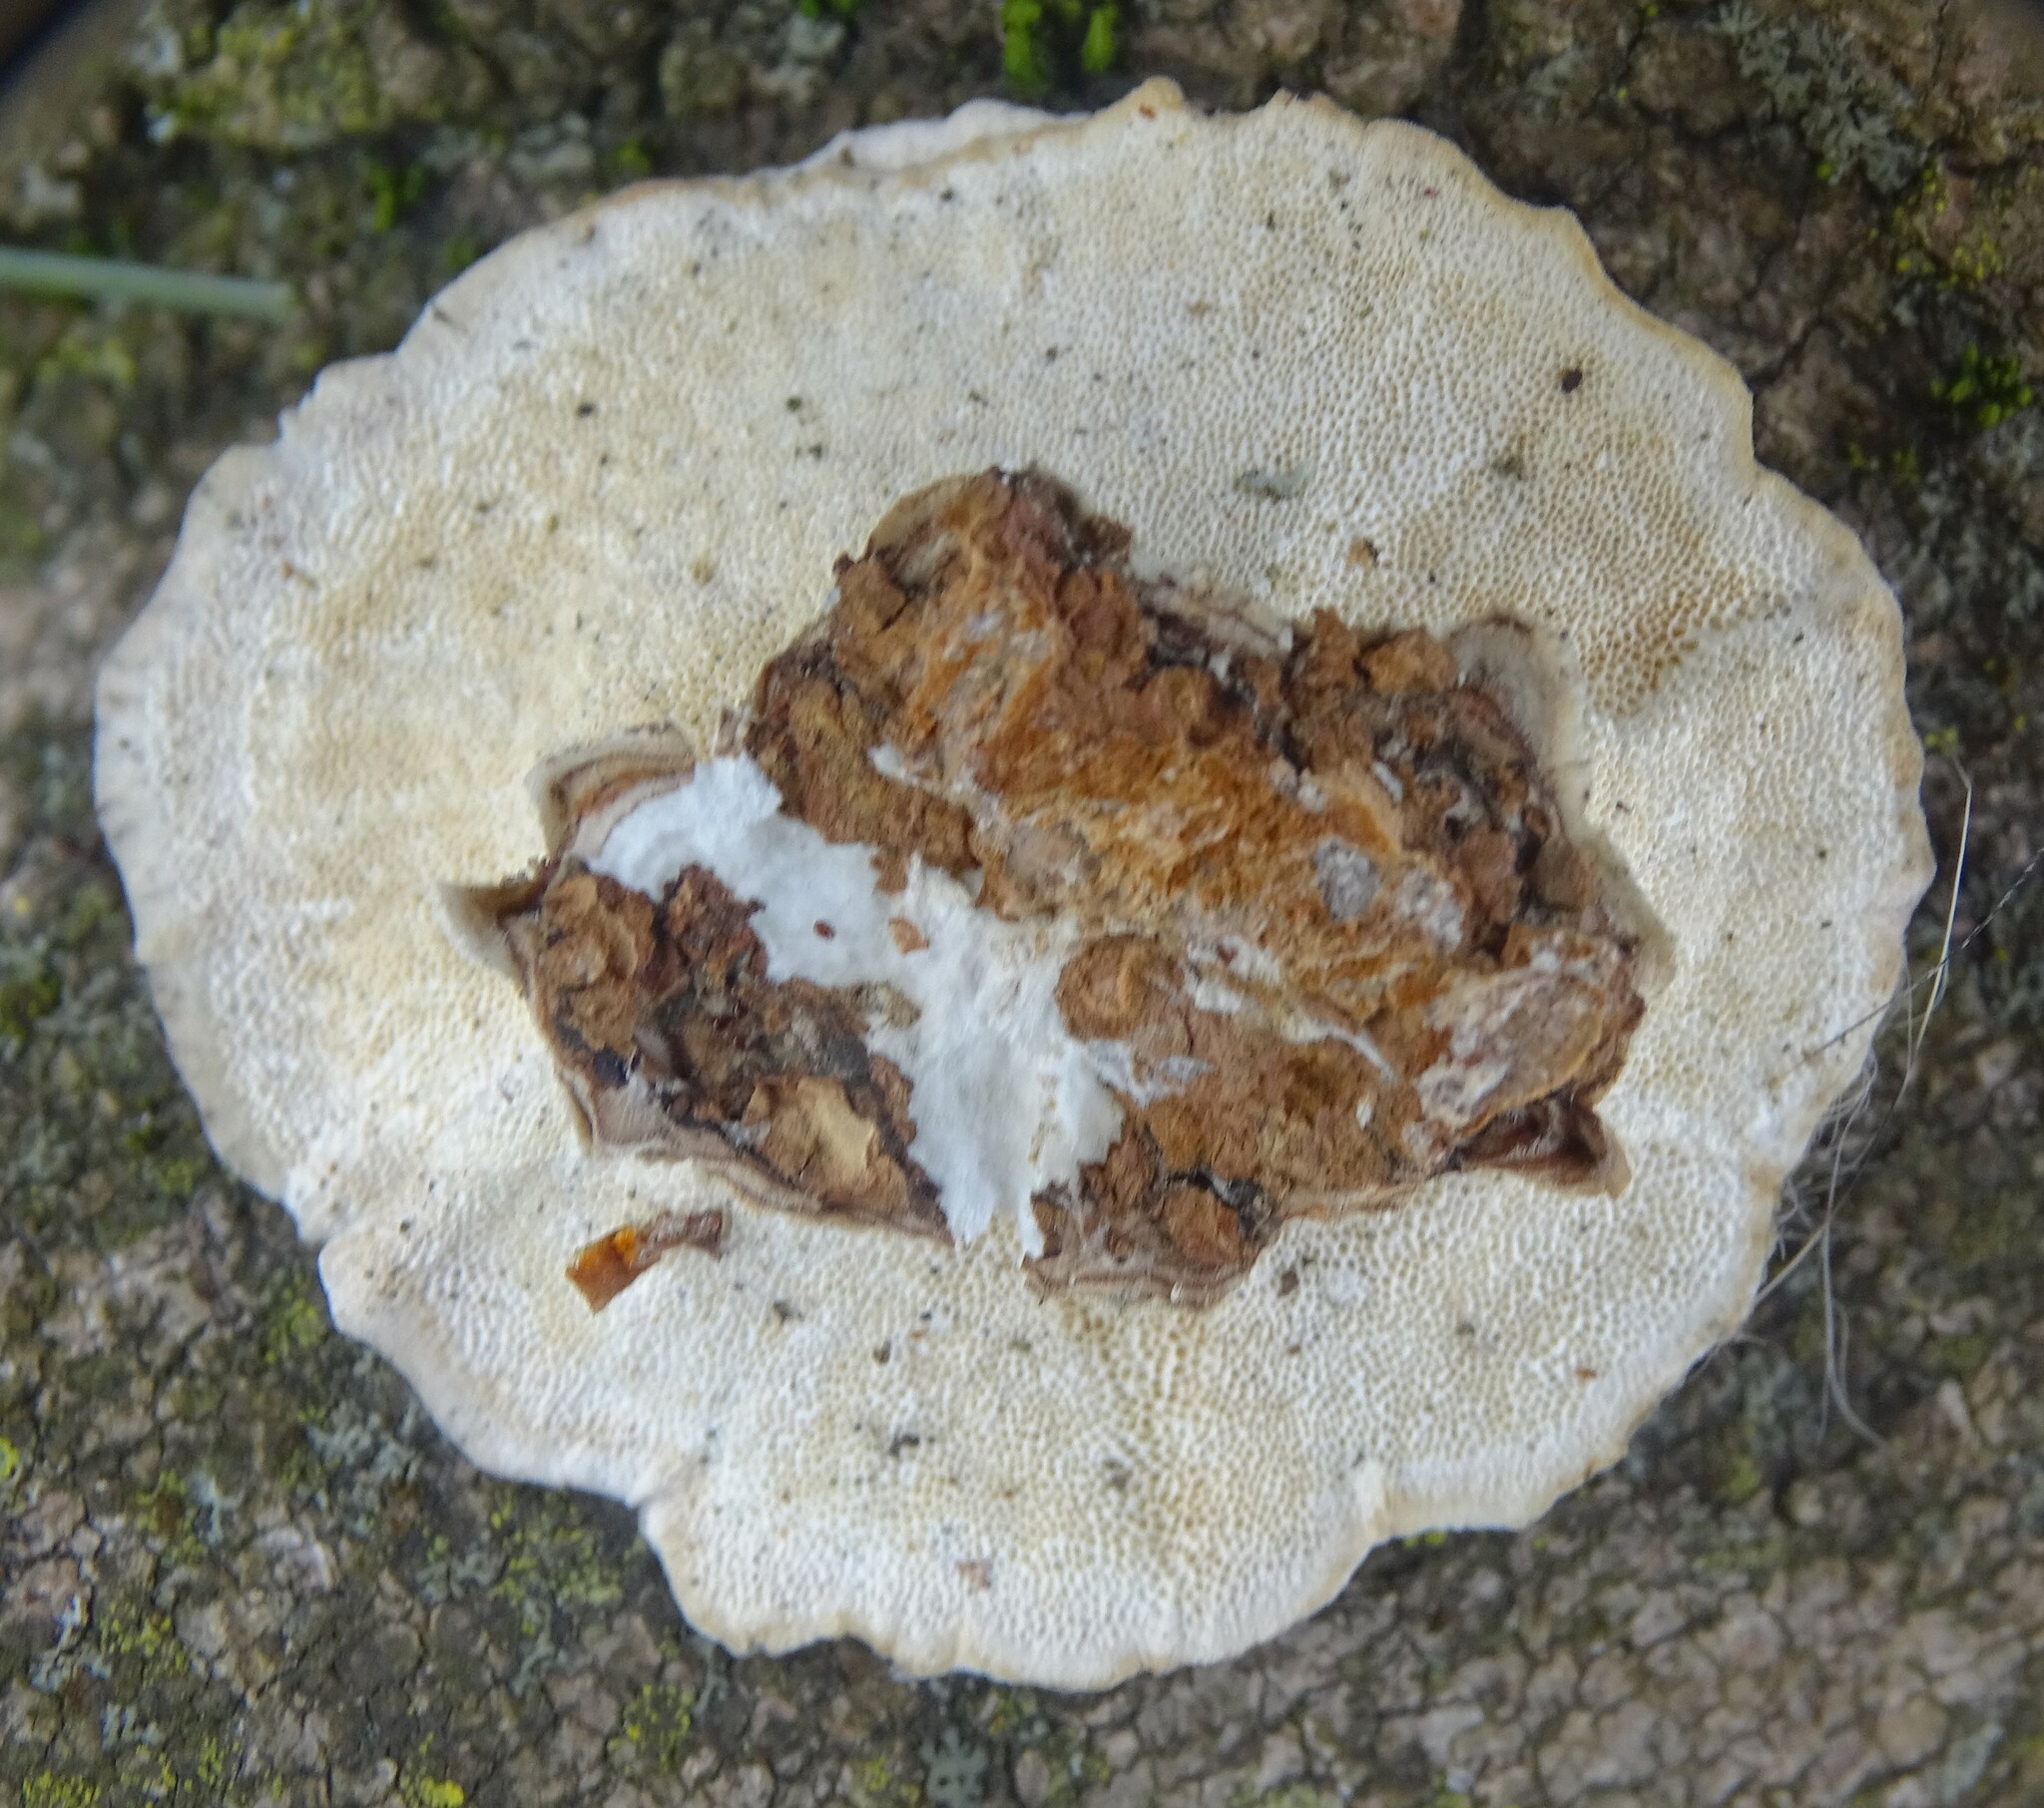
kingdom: Fungi
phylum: Basidiomycota
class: Agaricomycetes
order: Polyporales
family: Polyporaceae
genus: Trametes
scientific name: Trametes versicolor
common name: Turkeytail
